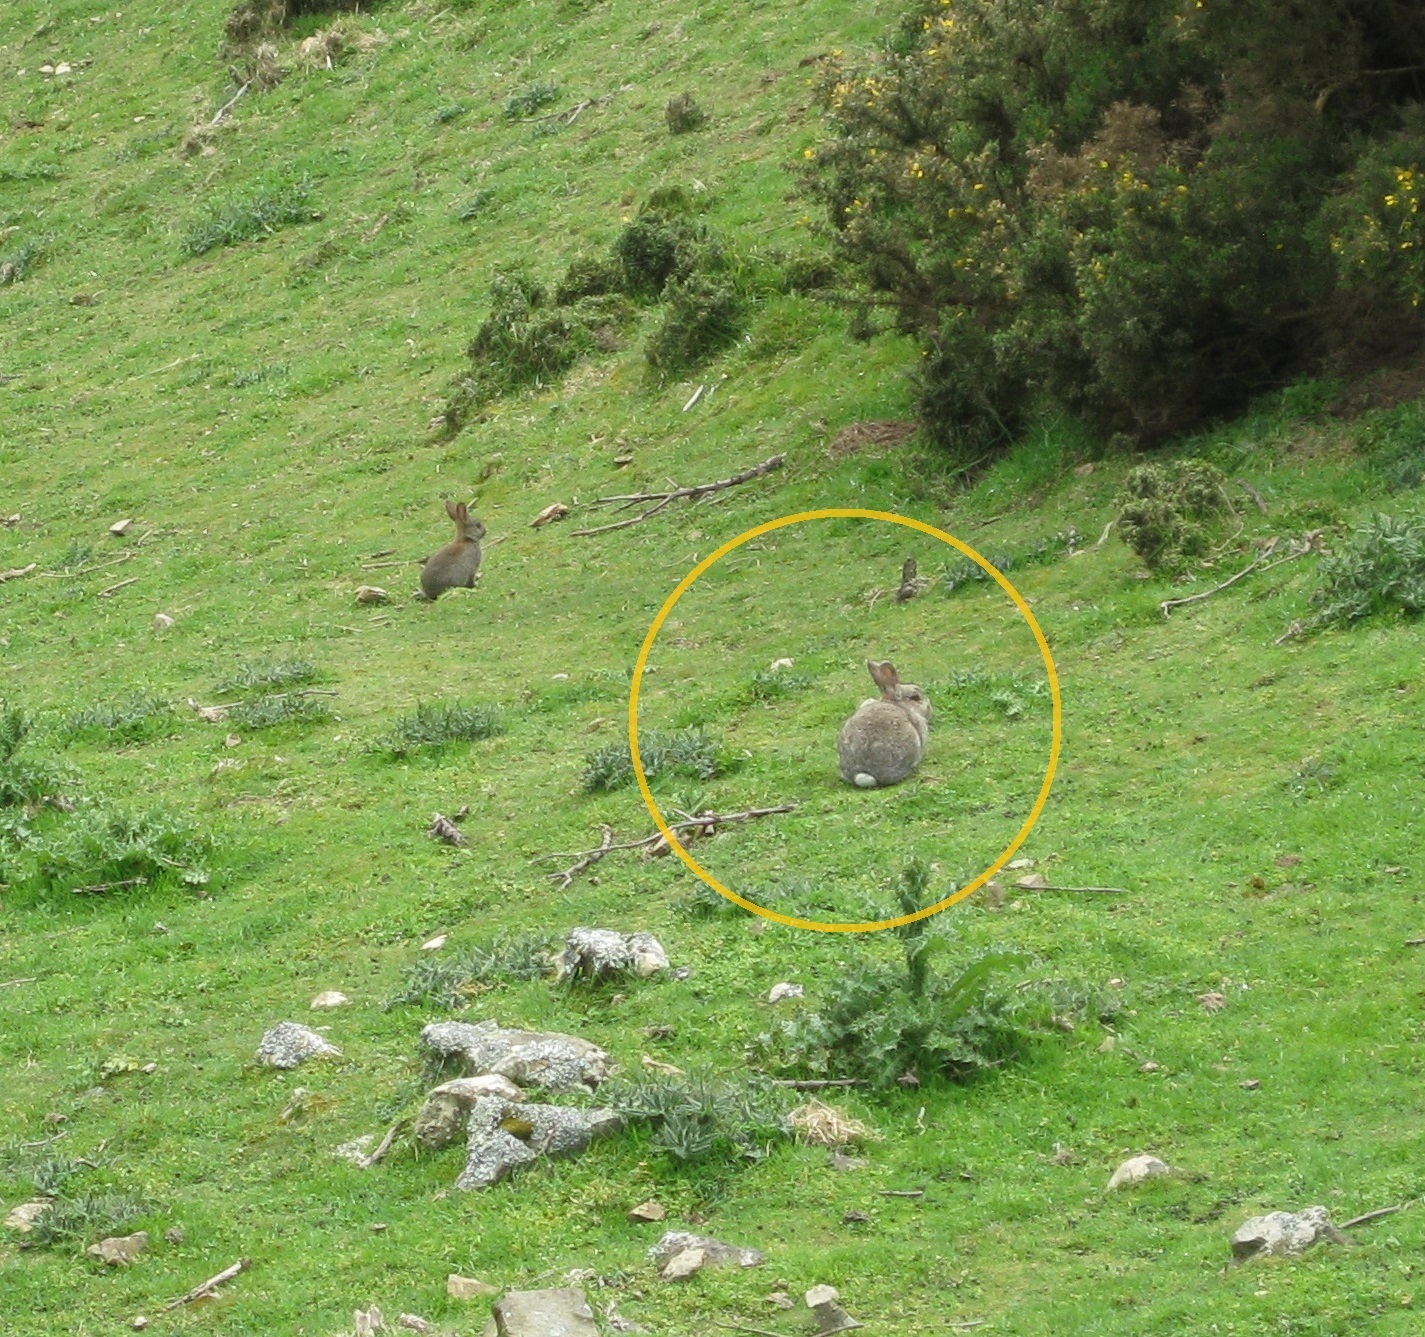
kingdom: Animalia
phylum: Chordata
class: Mammalia
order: Lagomorpha
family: Leporidae
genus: Oryctolagus
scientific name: Oryctolagus cuniculus
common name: European rabbit
